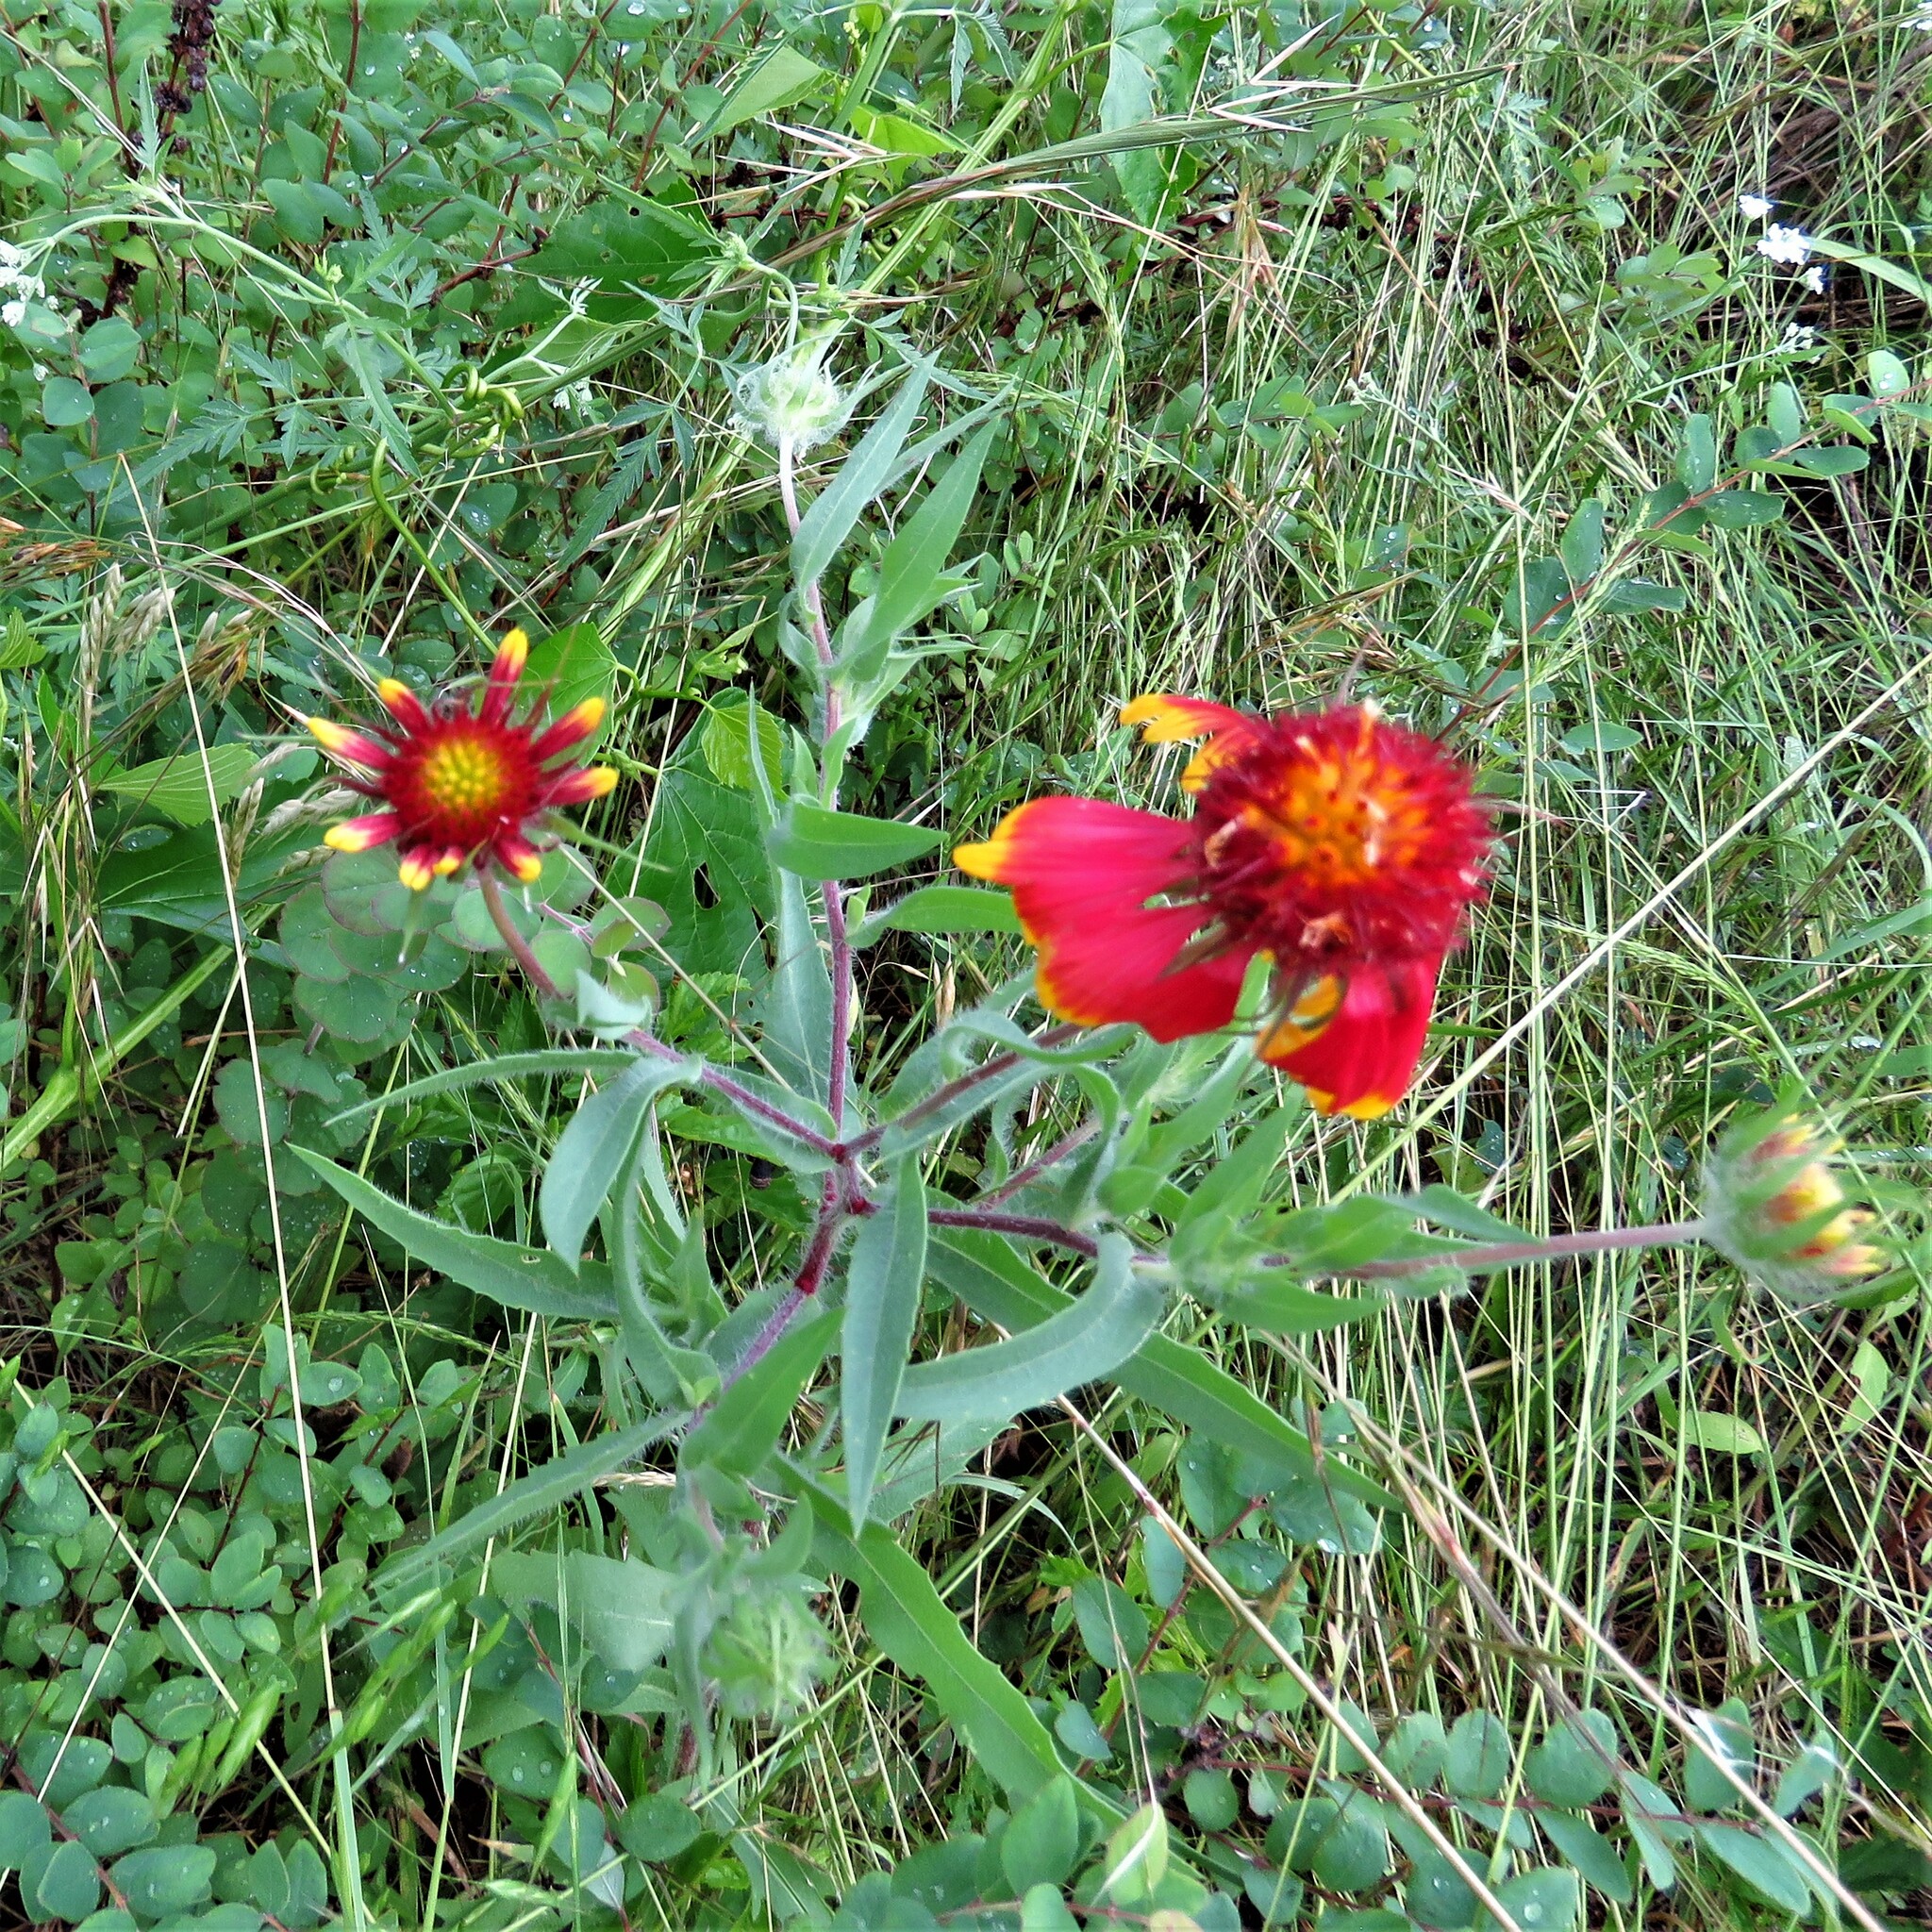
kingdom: Plantae
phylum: Tracheophyta
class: Magnoliopsida
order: Asterales
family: Asteraceae
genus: Gaillardia
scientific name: Gaillardia pulchella
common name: Firewheel
